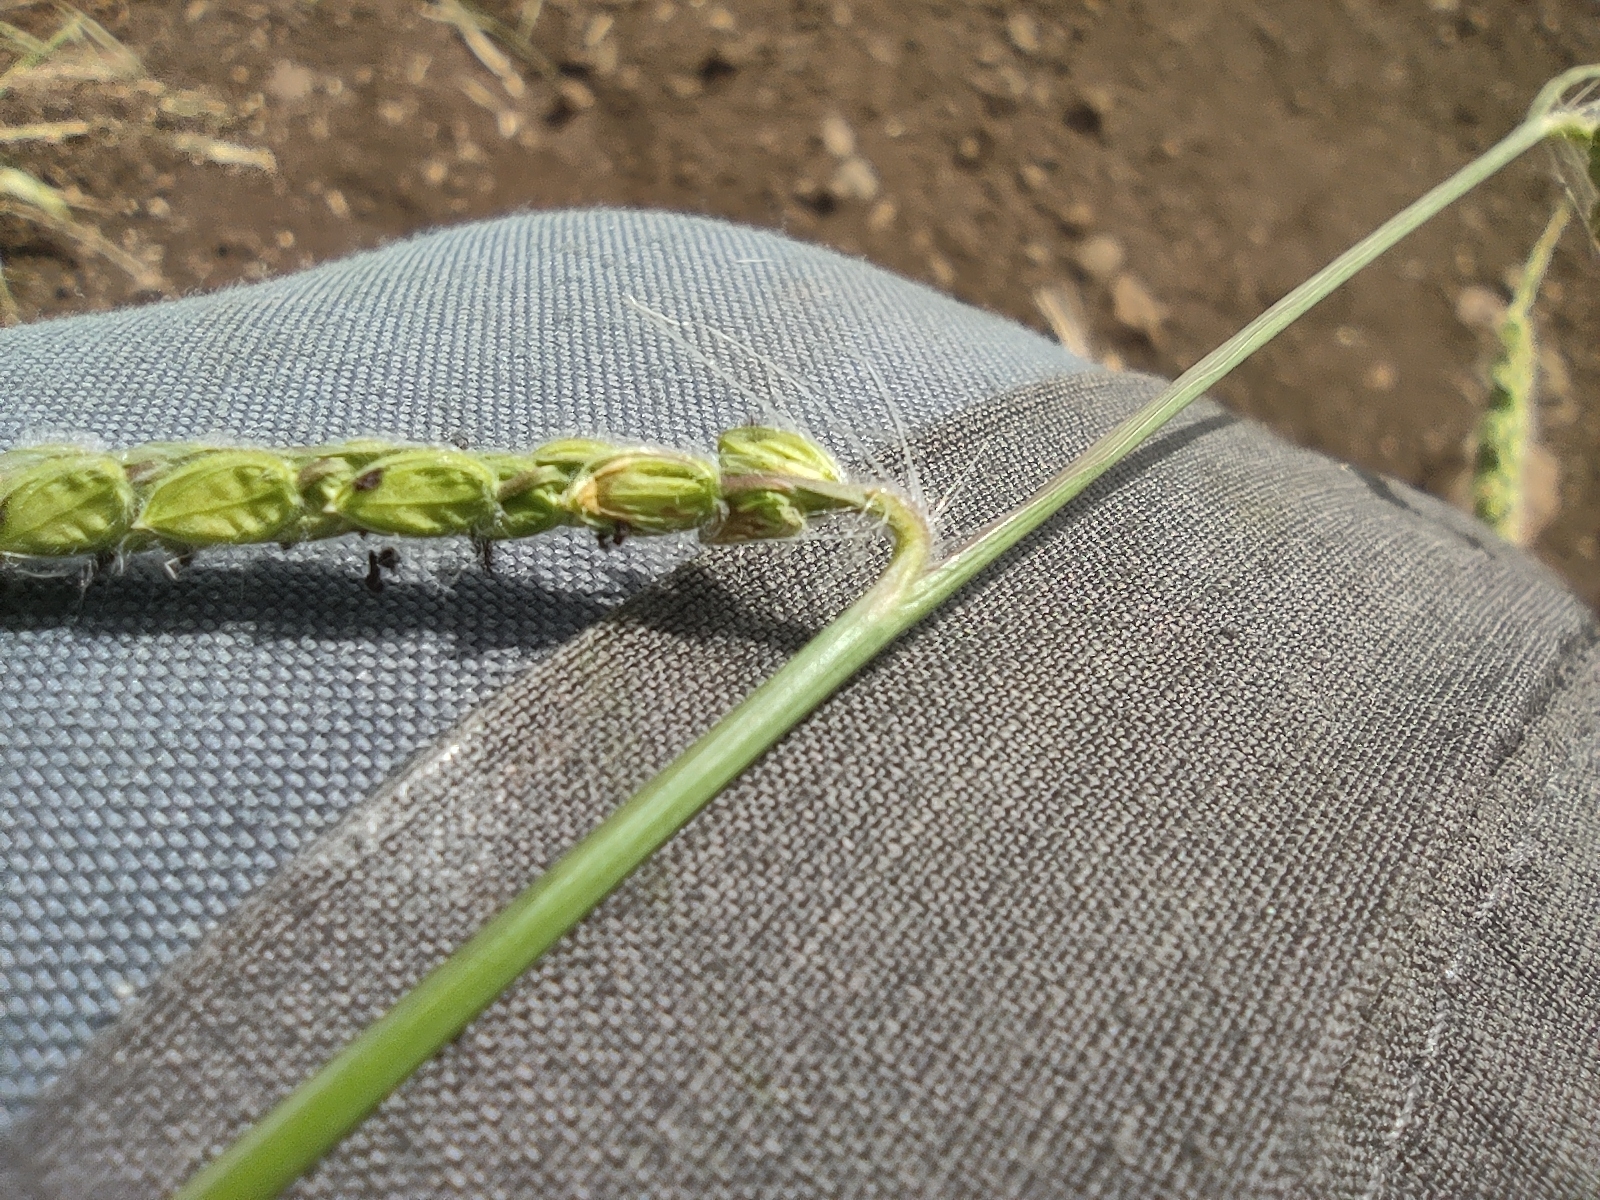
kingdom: Plantae
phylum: Tracheophyta
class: Liliopsida
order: Poales
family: Poaceae
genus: Paspalum
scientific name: Paspalum dilatatum
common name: Dallisgrass
